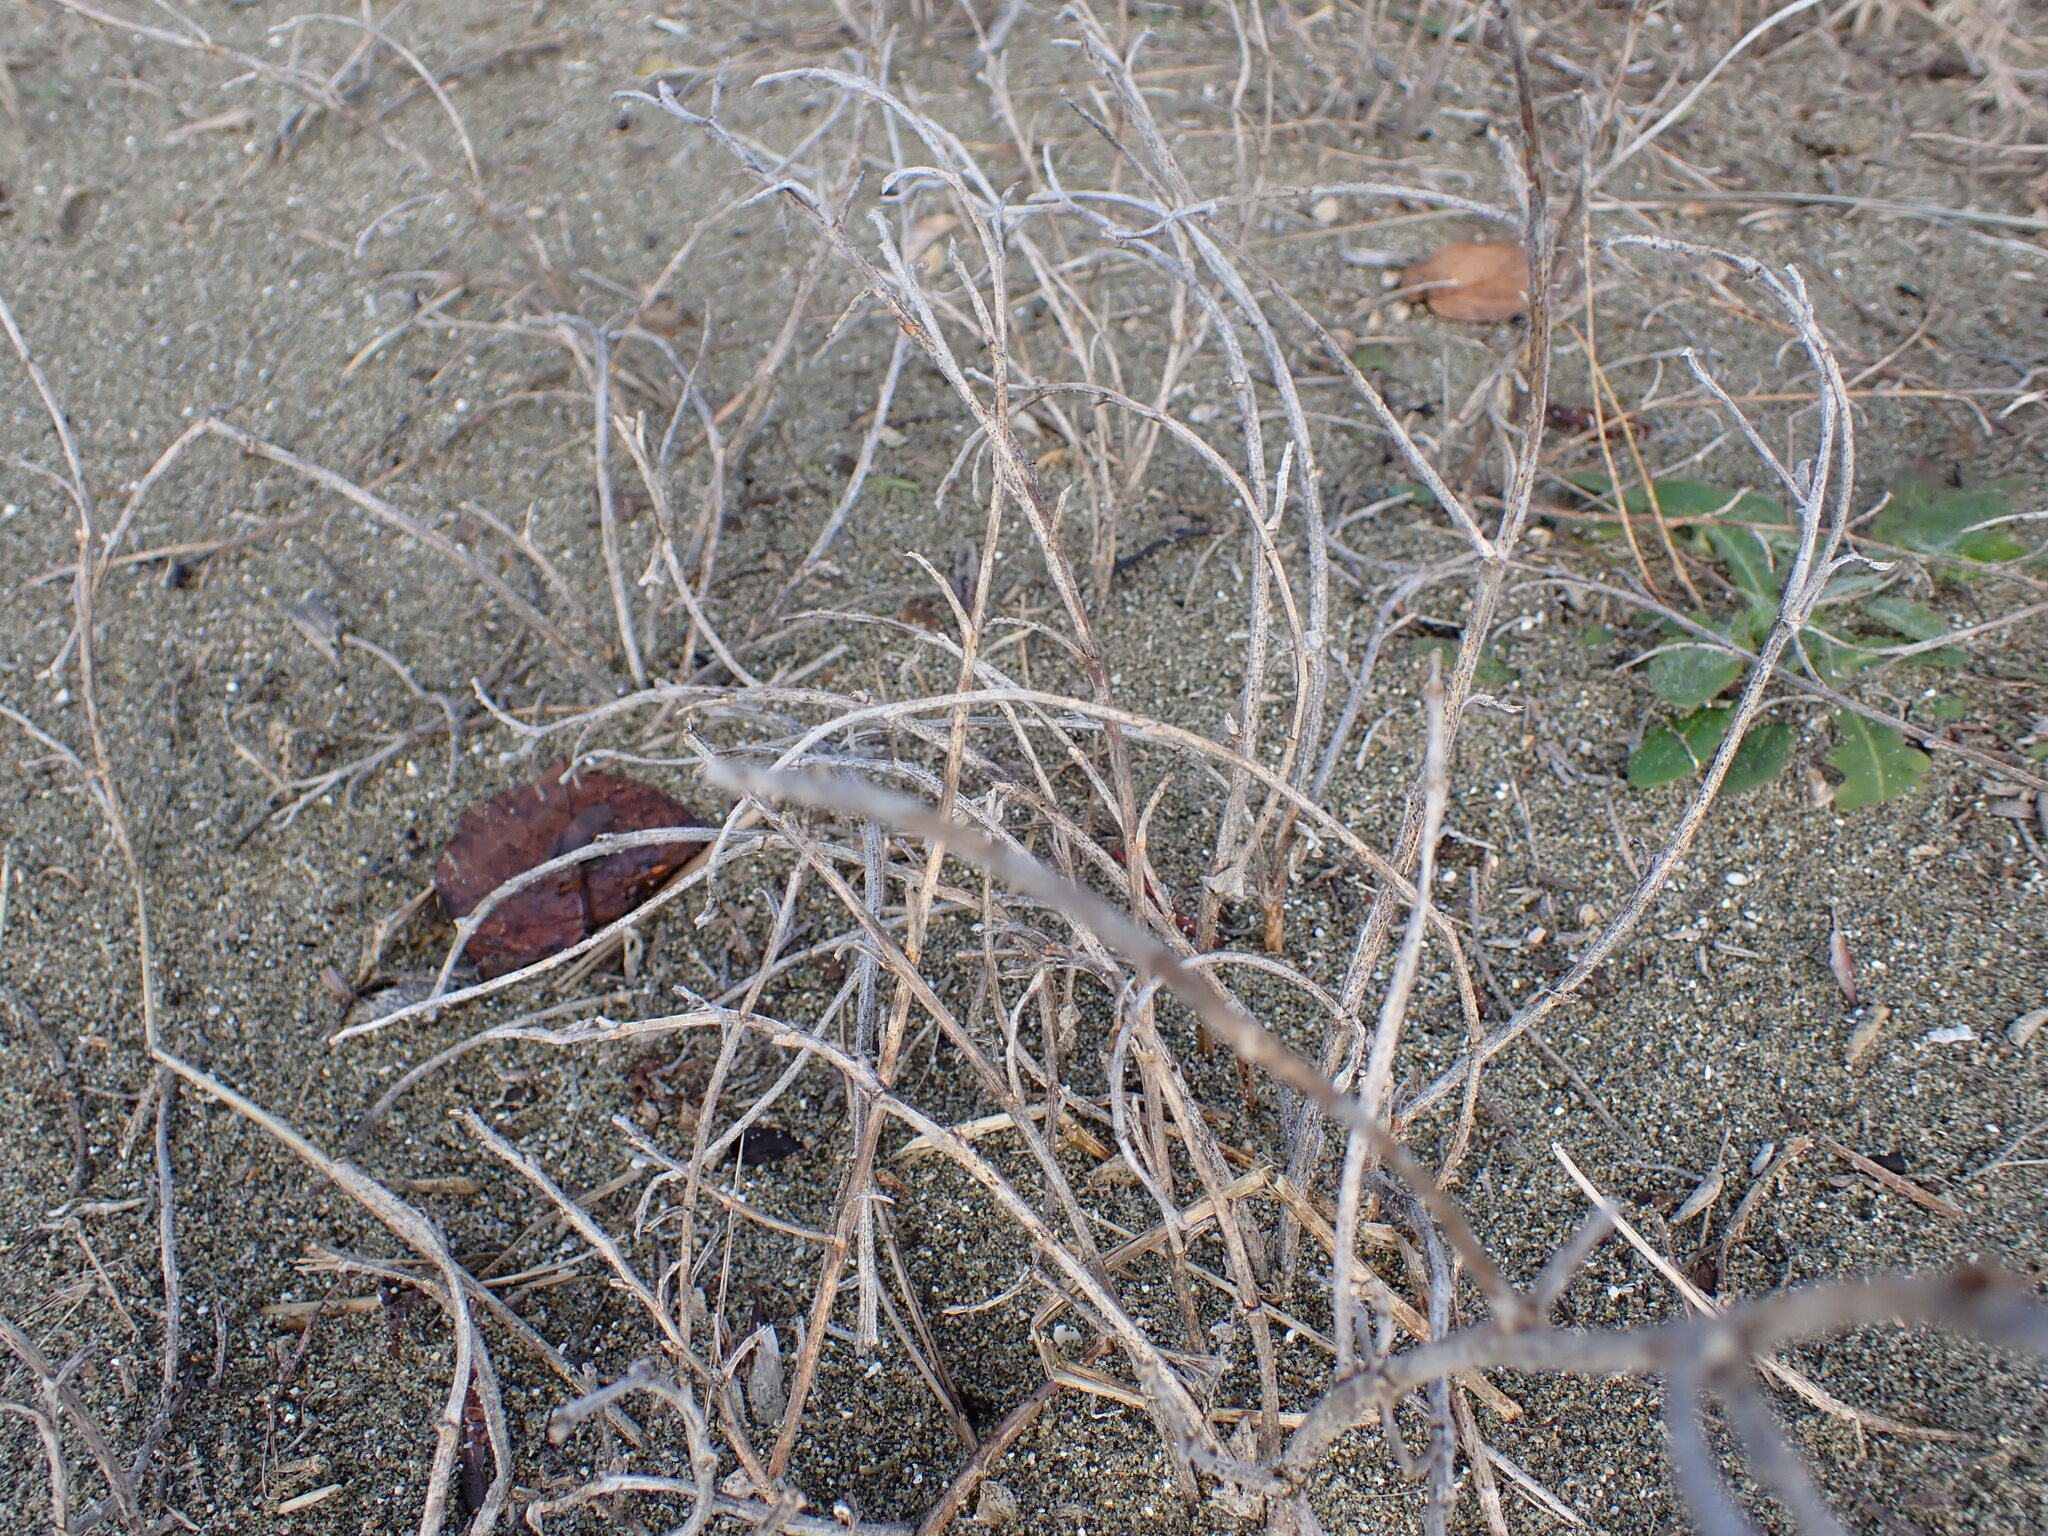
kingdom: Plantae
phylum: Tracheophyta
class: Magnoliopsida
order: Fabales
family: Fabaceae
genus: Lathyrus
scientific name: Lathyrus littoralis
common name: Dune sweet pea
